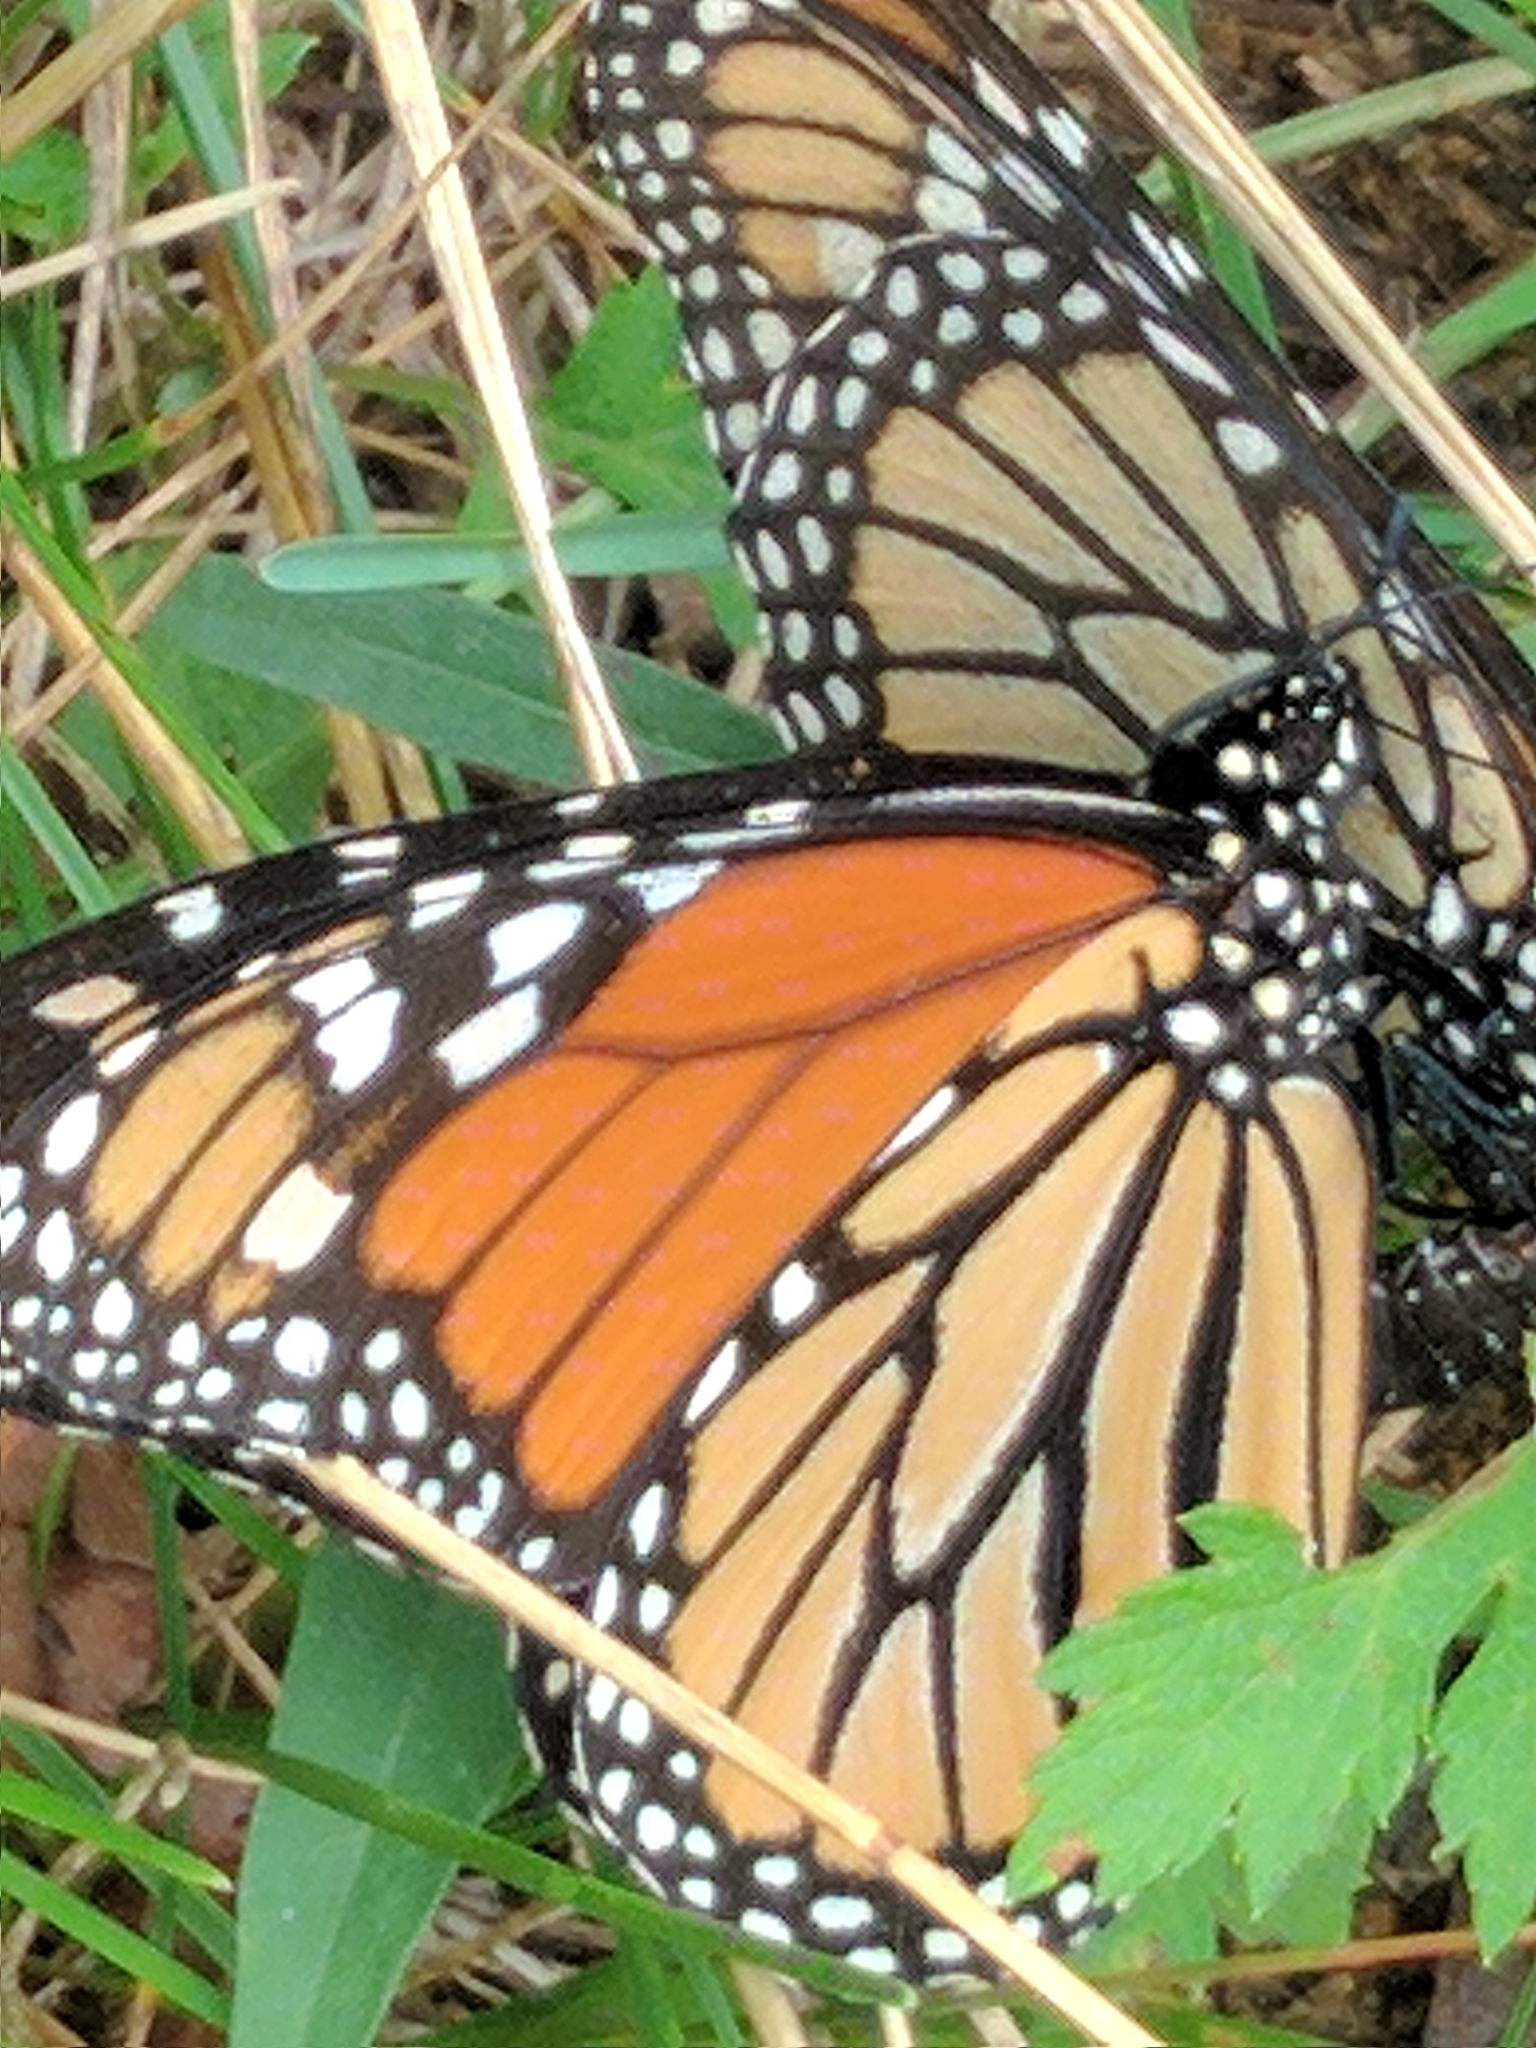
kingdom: Animalia
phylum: Arthropoda
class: Insecta
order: Lepidoptera
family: Nymphalidae
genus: Danaus
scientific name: Danaus plexippus
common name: Monarch
